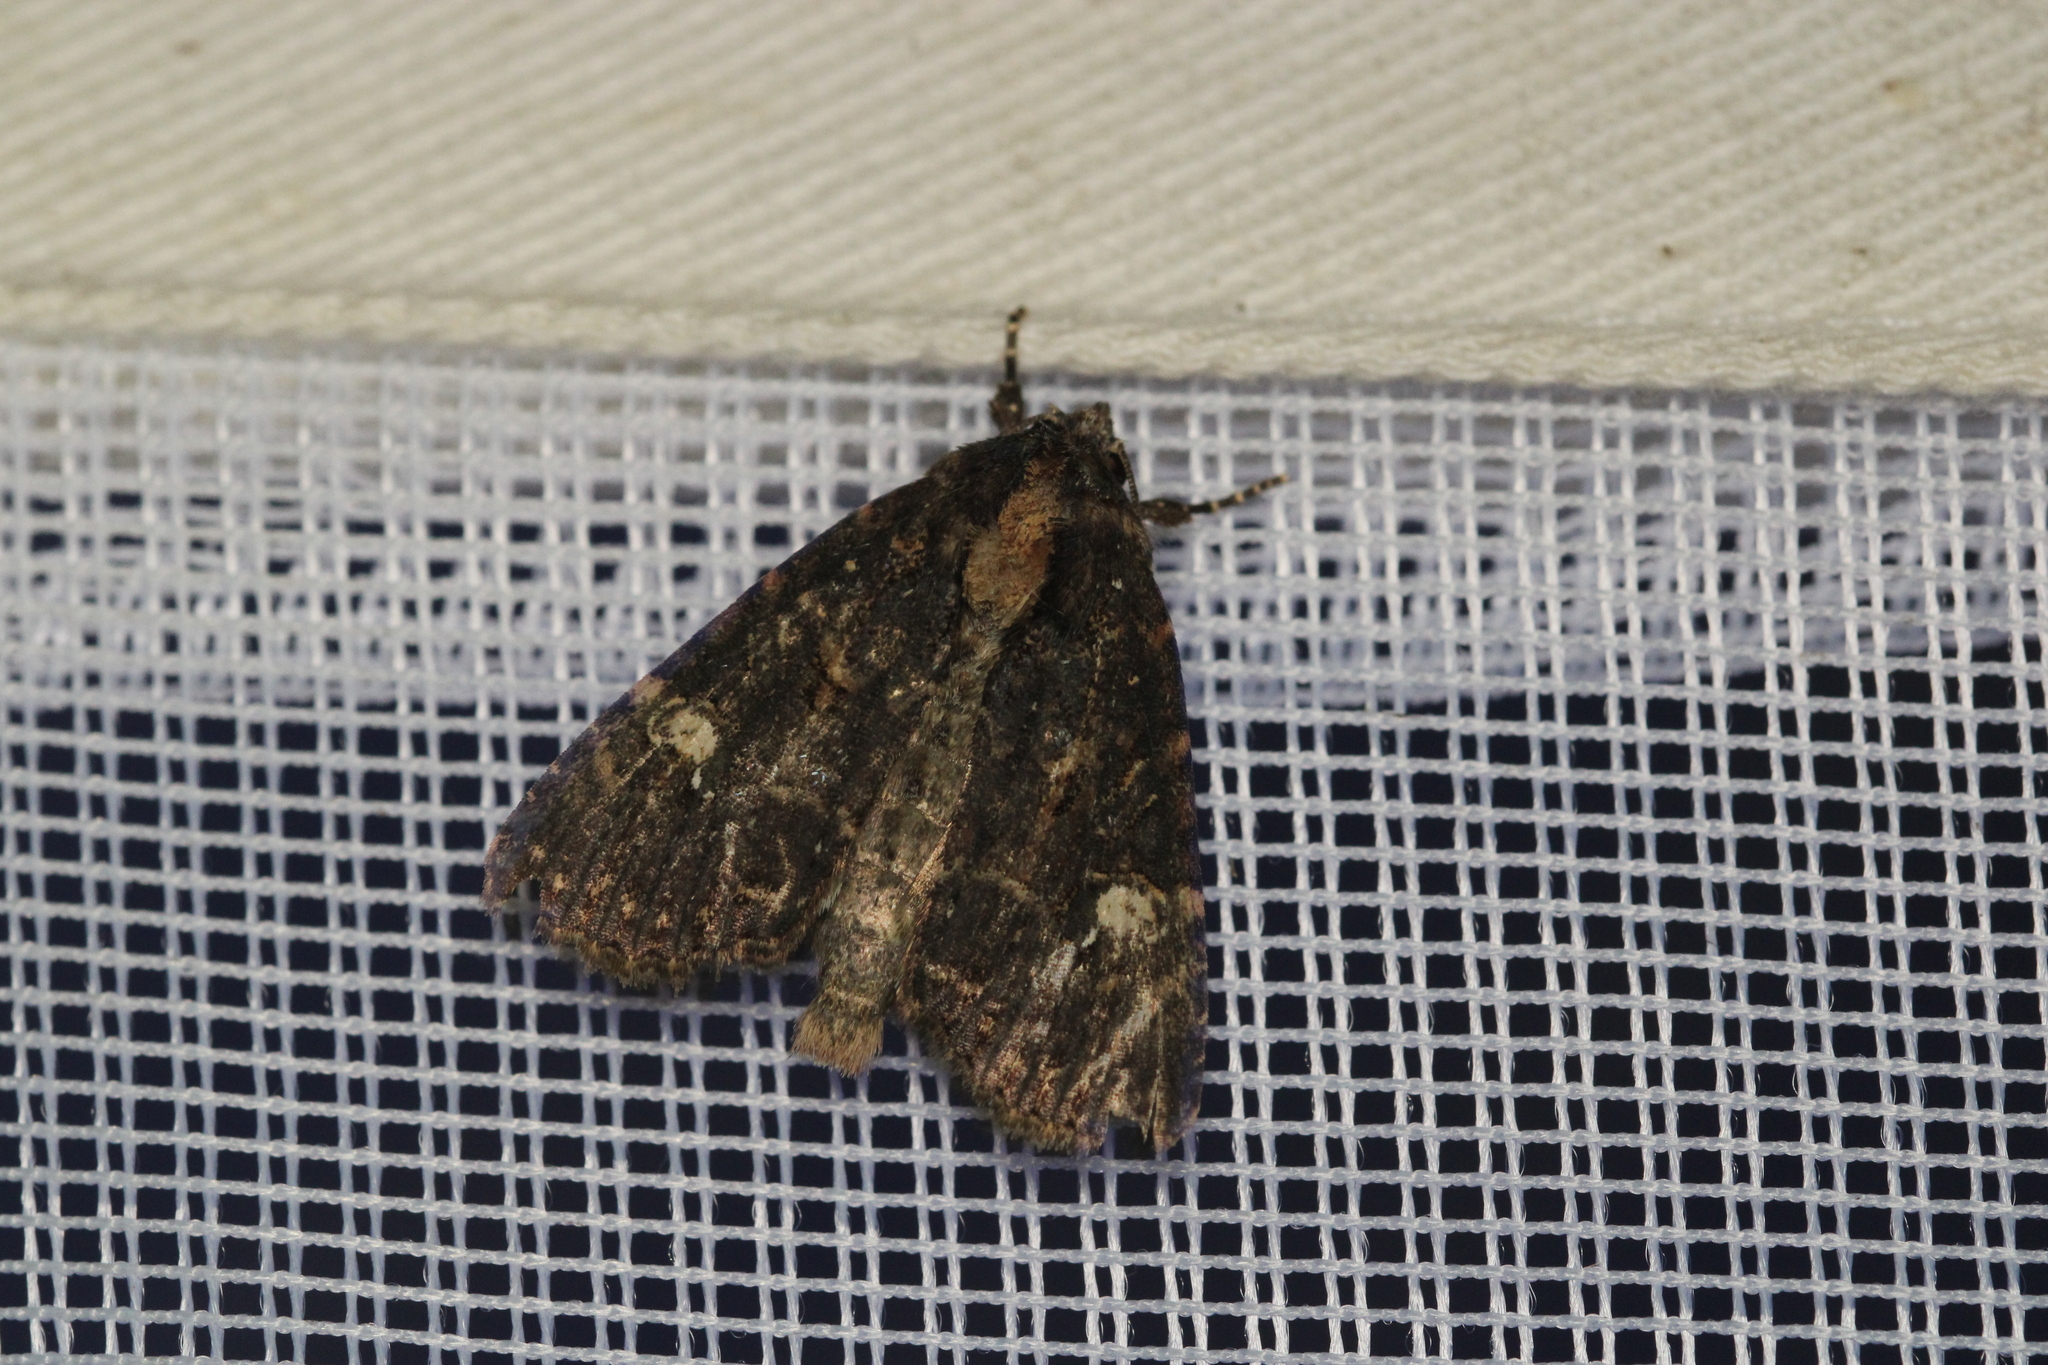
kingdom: Animalia
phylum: Arthropoda
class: Insecta
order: Lepidoptera
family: Noctuidae
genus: Mesapamea
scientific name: Mesapamea
